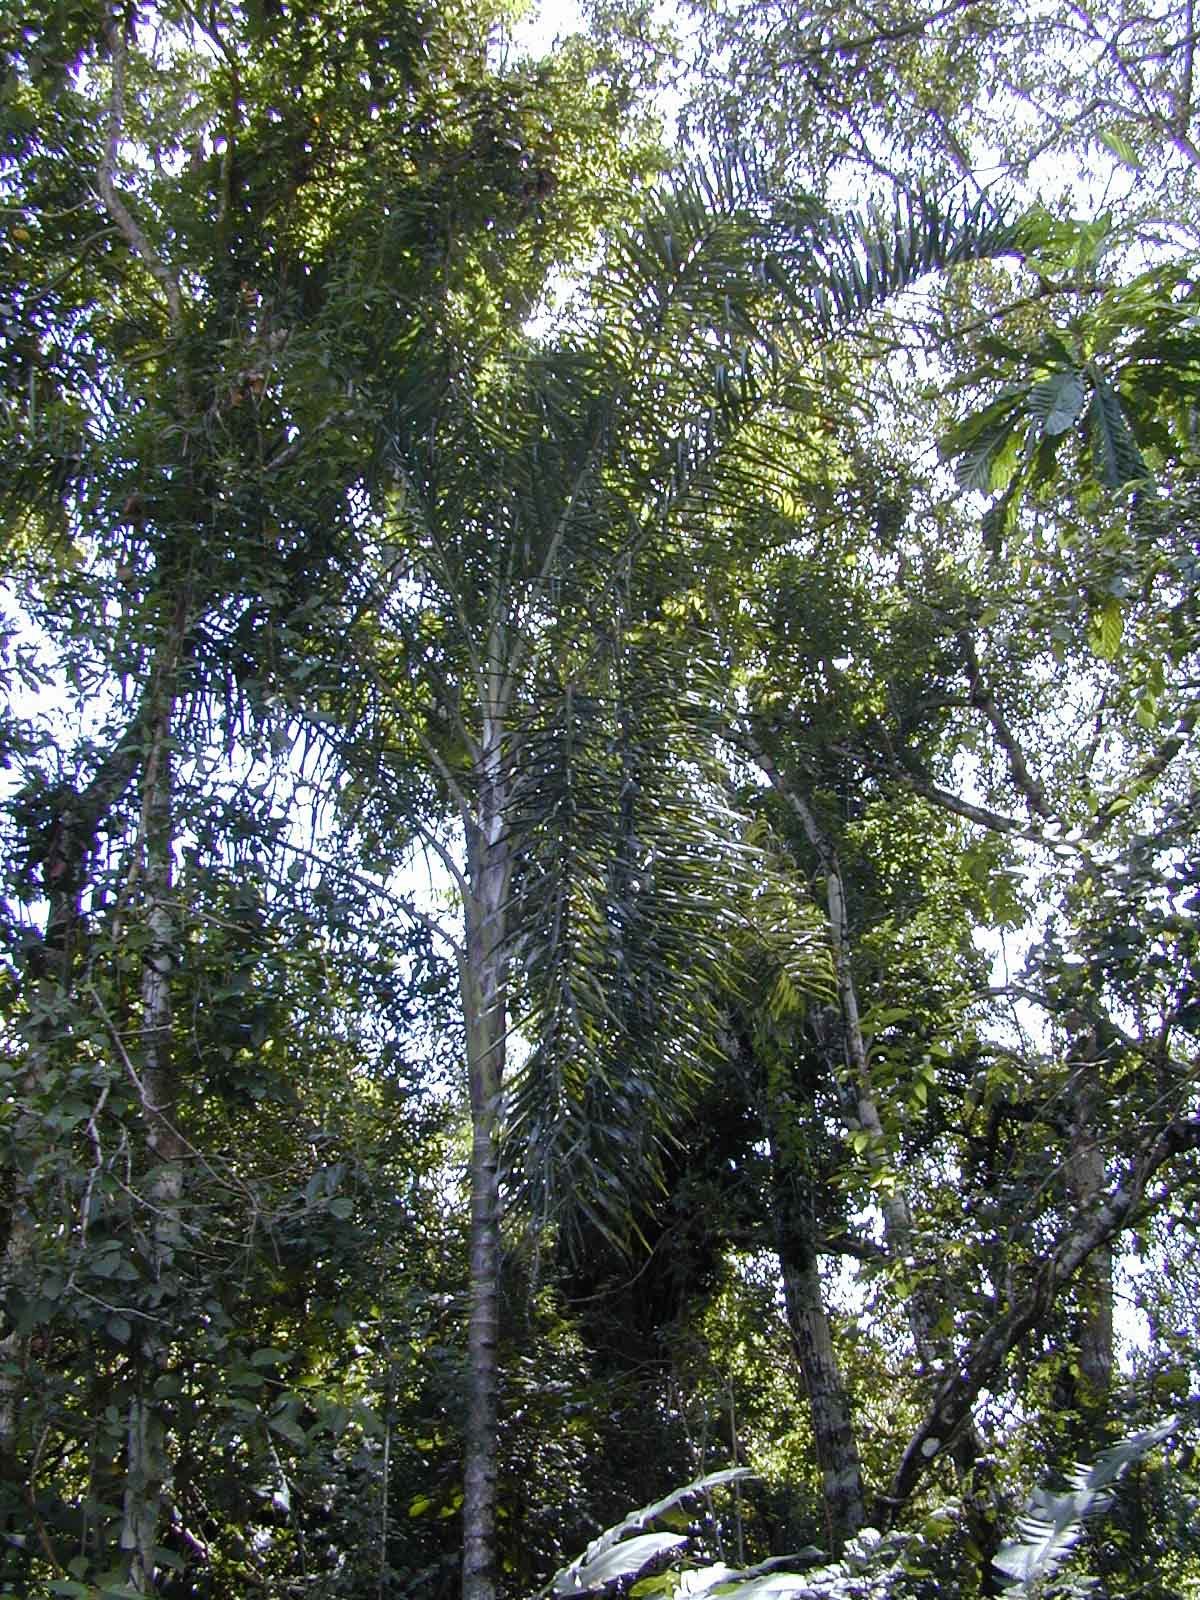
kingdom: Plantae
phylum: Tracheophyta
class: Liliopsida
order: Arecales
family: Arecaceae
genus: Dypsis
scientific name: Dypsis madagascariensis
